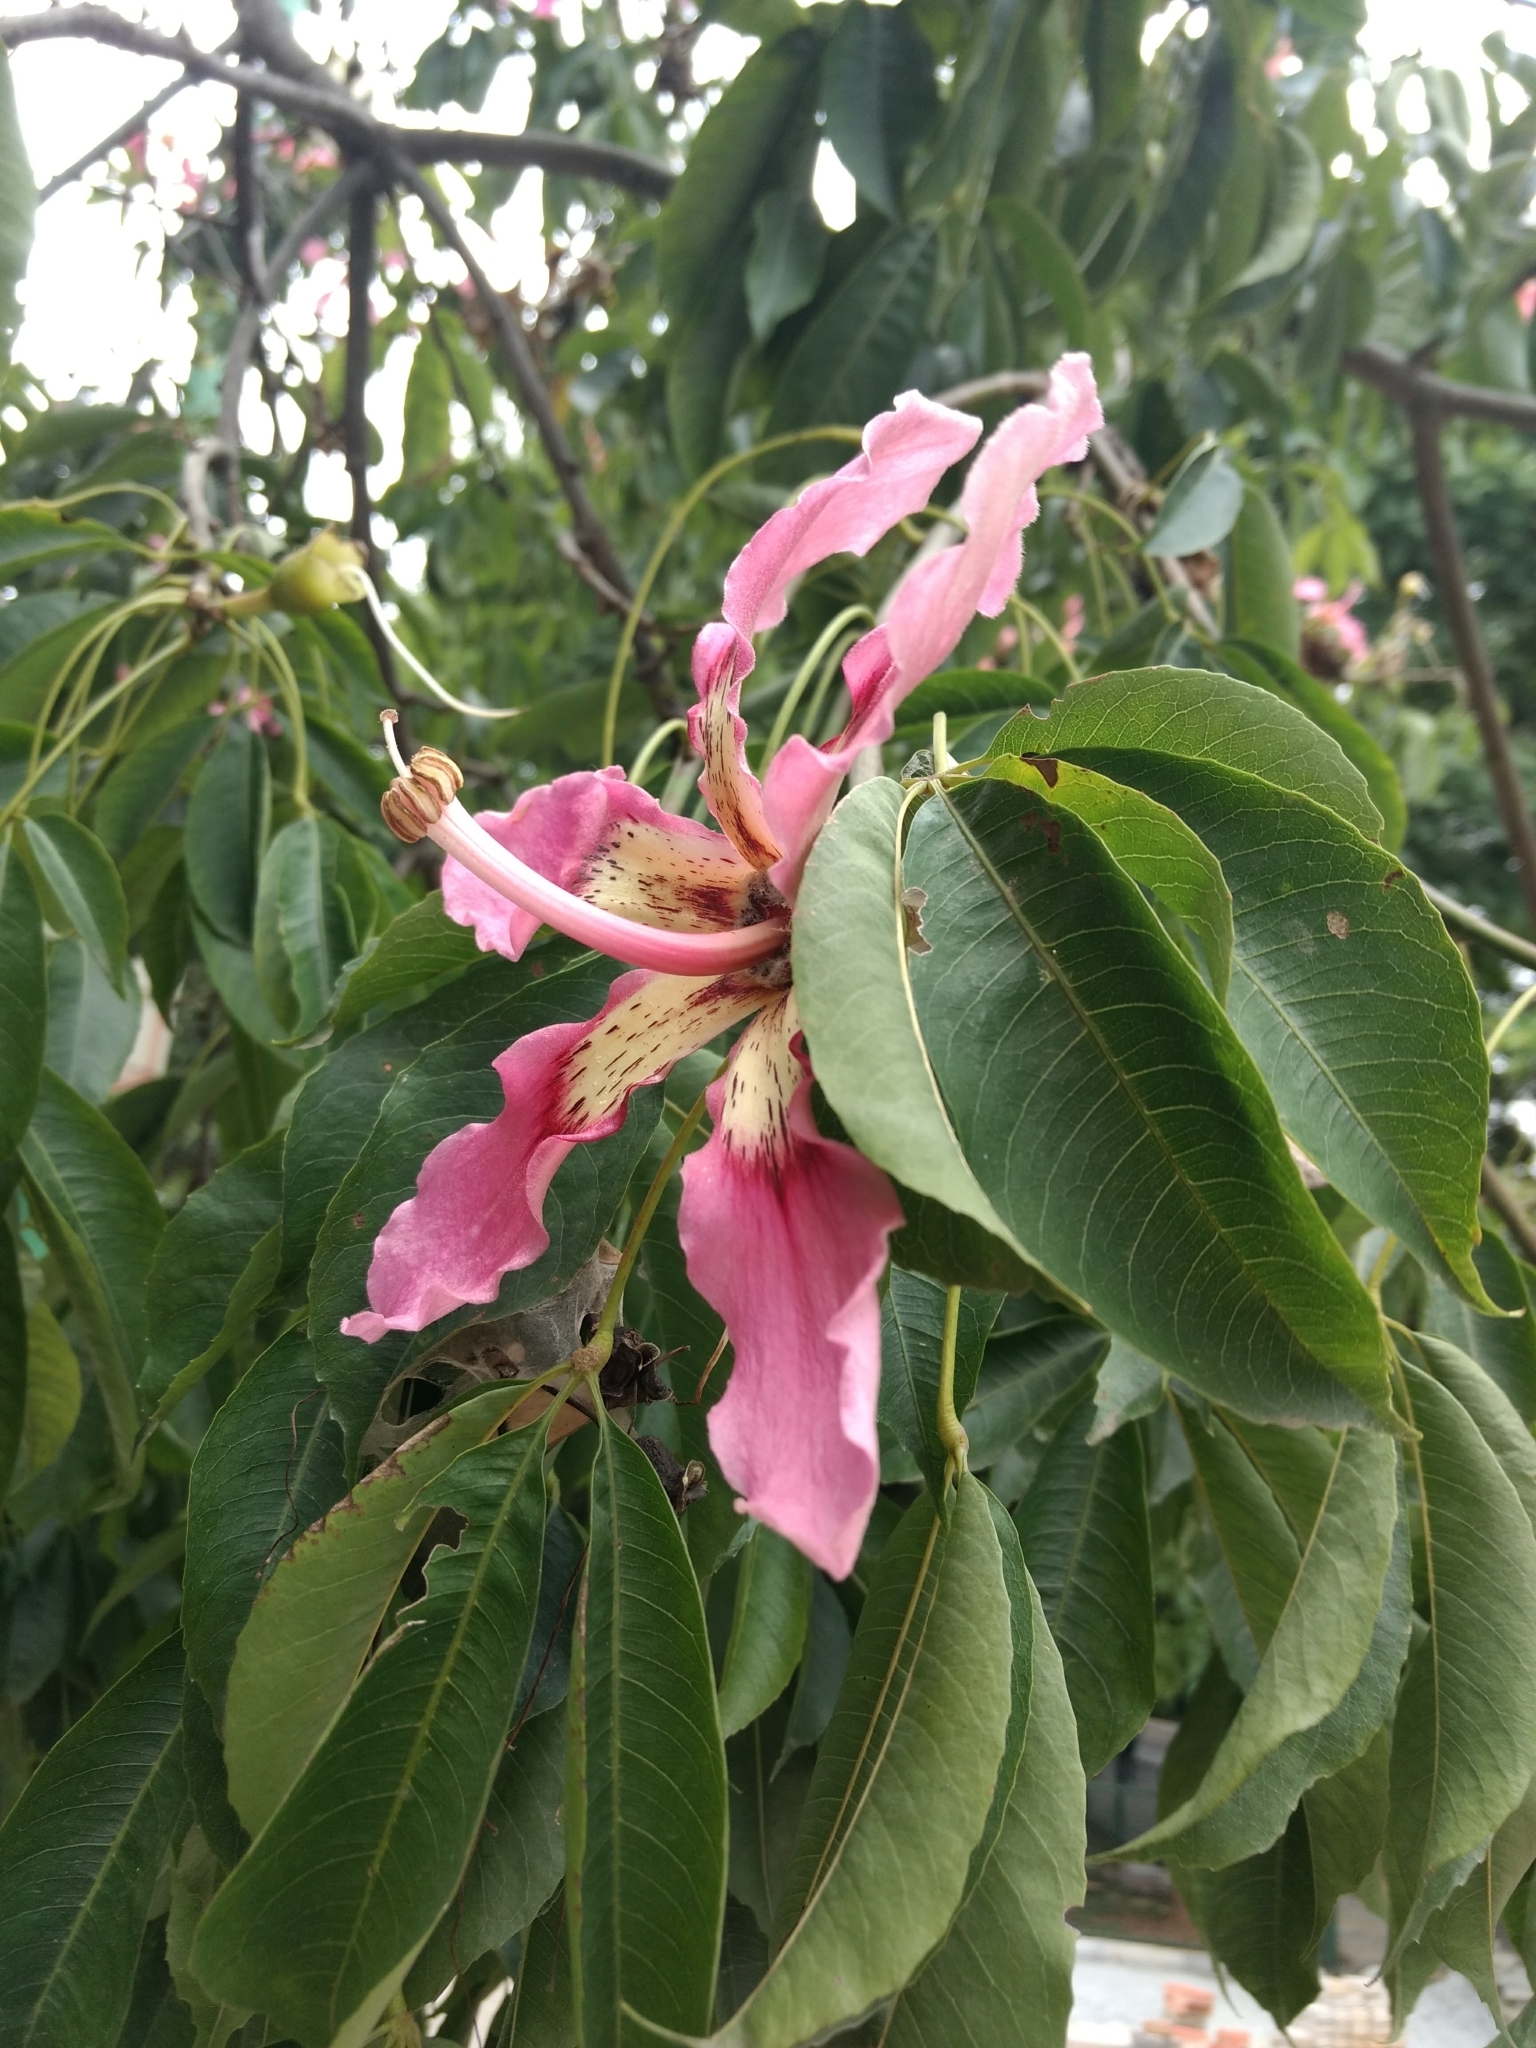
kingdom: Plantae
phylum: Tracheophyta
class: Magnoliopsida
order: Malvales
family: Malvaceae
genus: Ceiba
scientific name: Ceiba speciosa
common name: Silk-floss tree
